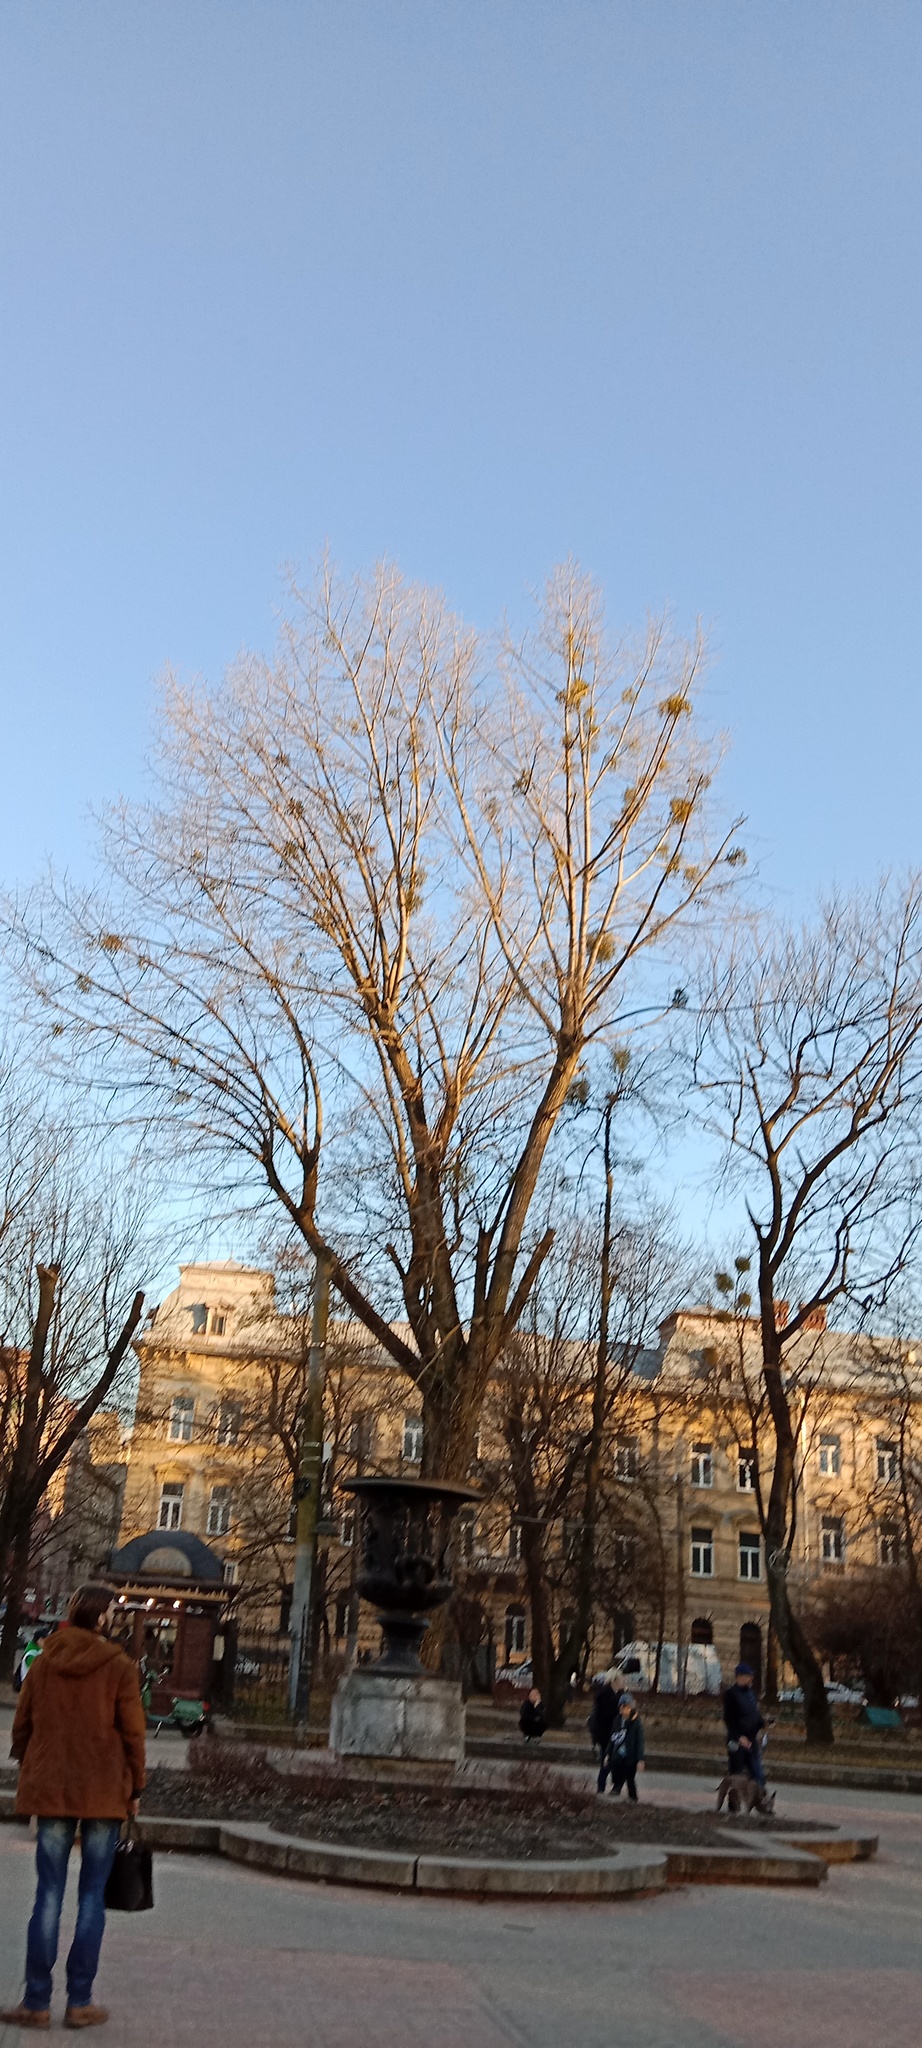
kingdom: Plantae
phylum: Tracheophyta
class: Magnoliopsida
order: Santalales
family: Viscaceae
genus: Viscum
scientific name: Viscum album
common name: Mistletoe
